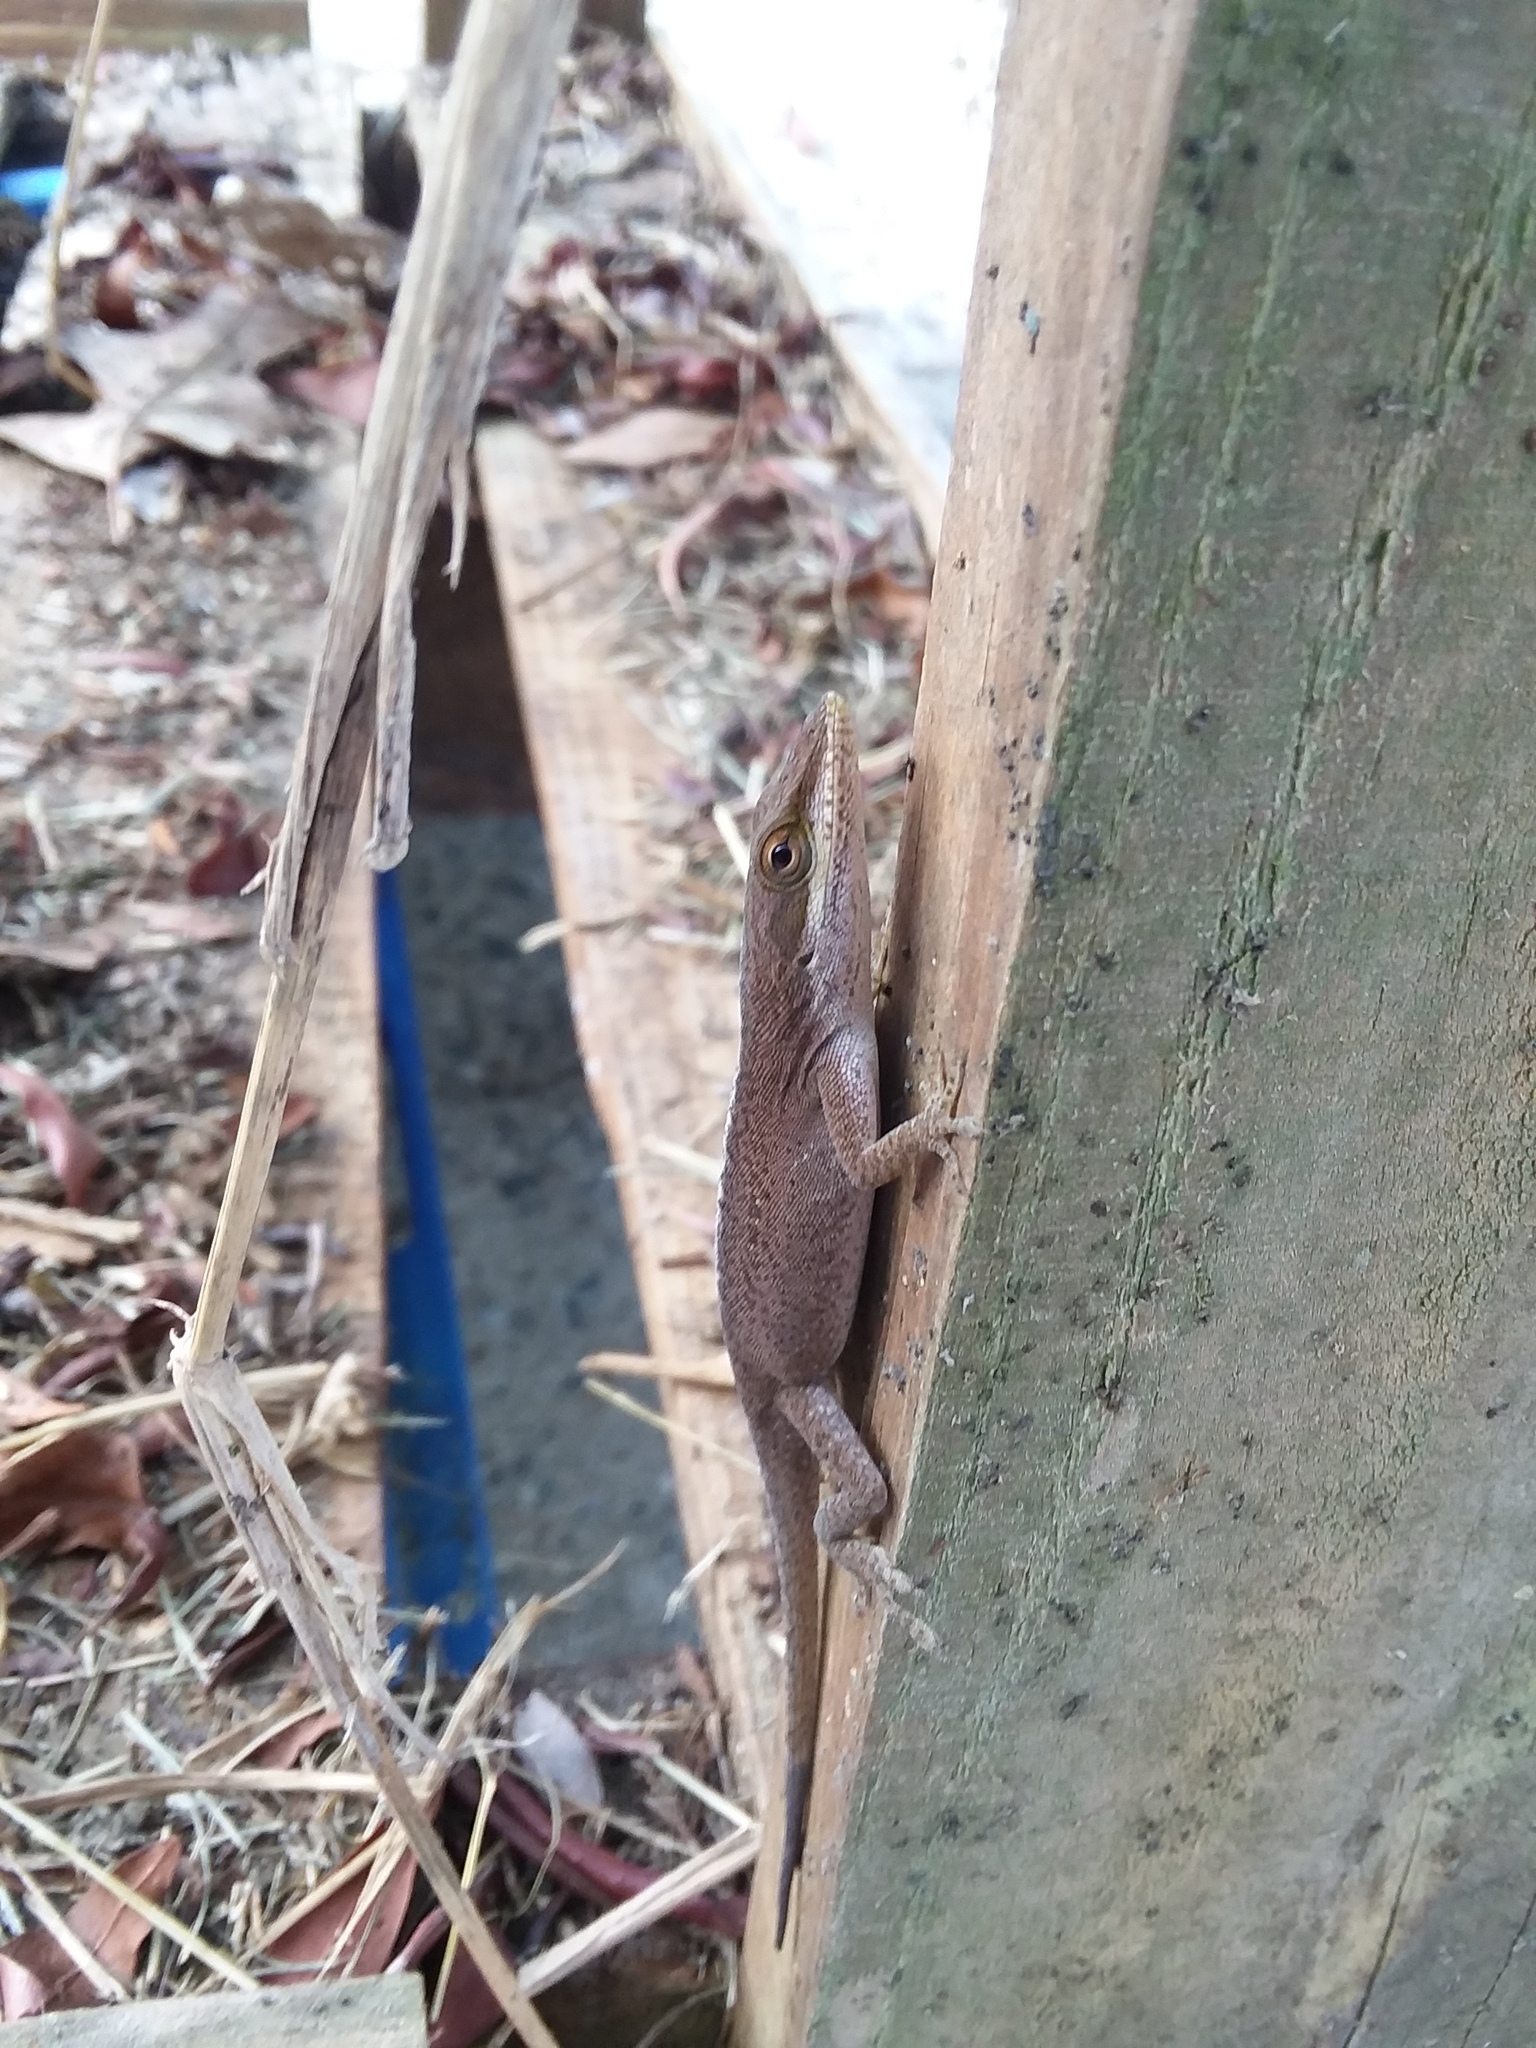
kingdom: Animalia
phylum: Chordata
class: Squamata
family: Dactyloidae
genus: Anolis
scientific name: Anolis carolinensis
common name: Green anole
